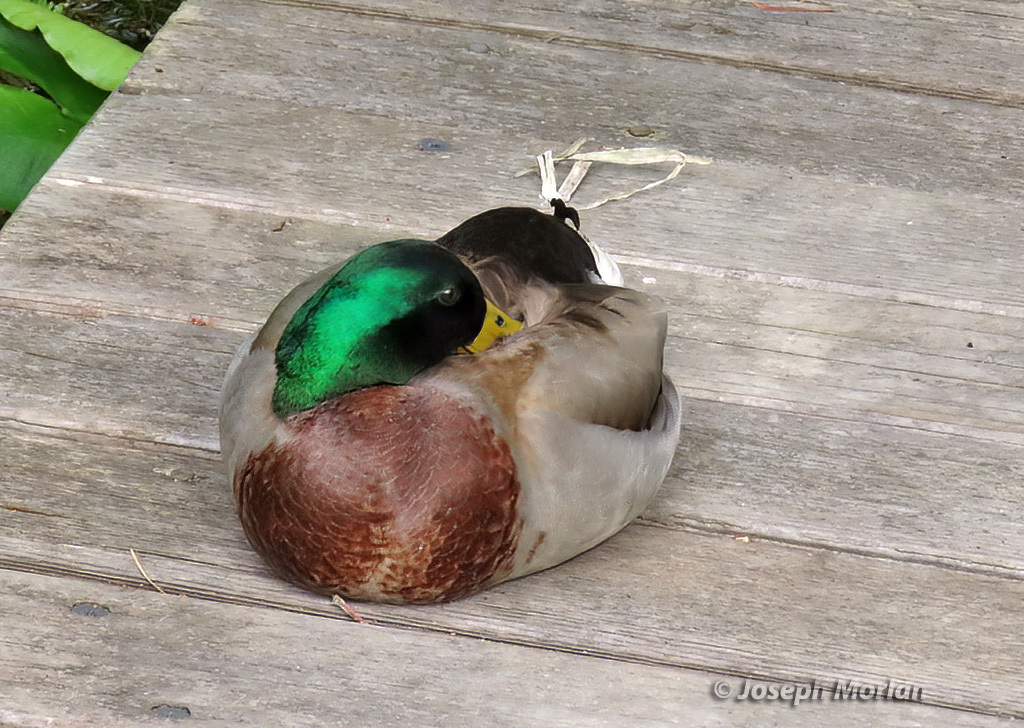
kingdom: Animalia
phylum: Chordata
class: Aves
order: Anseriformes
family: Anatidae
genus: Anas
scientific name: Anas platyrhynchos
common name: Mallard
